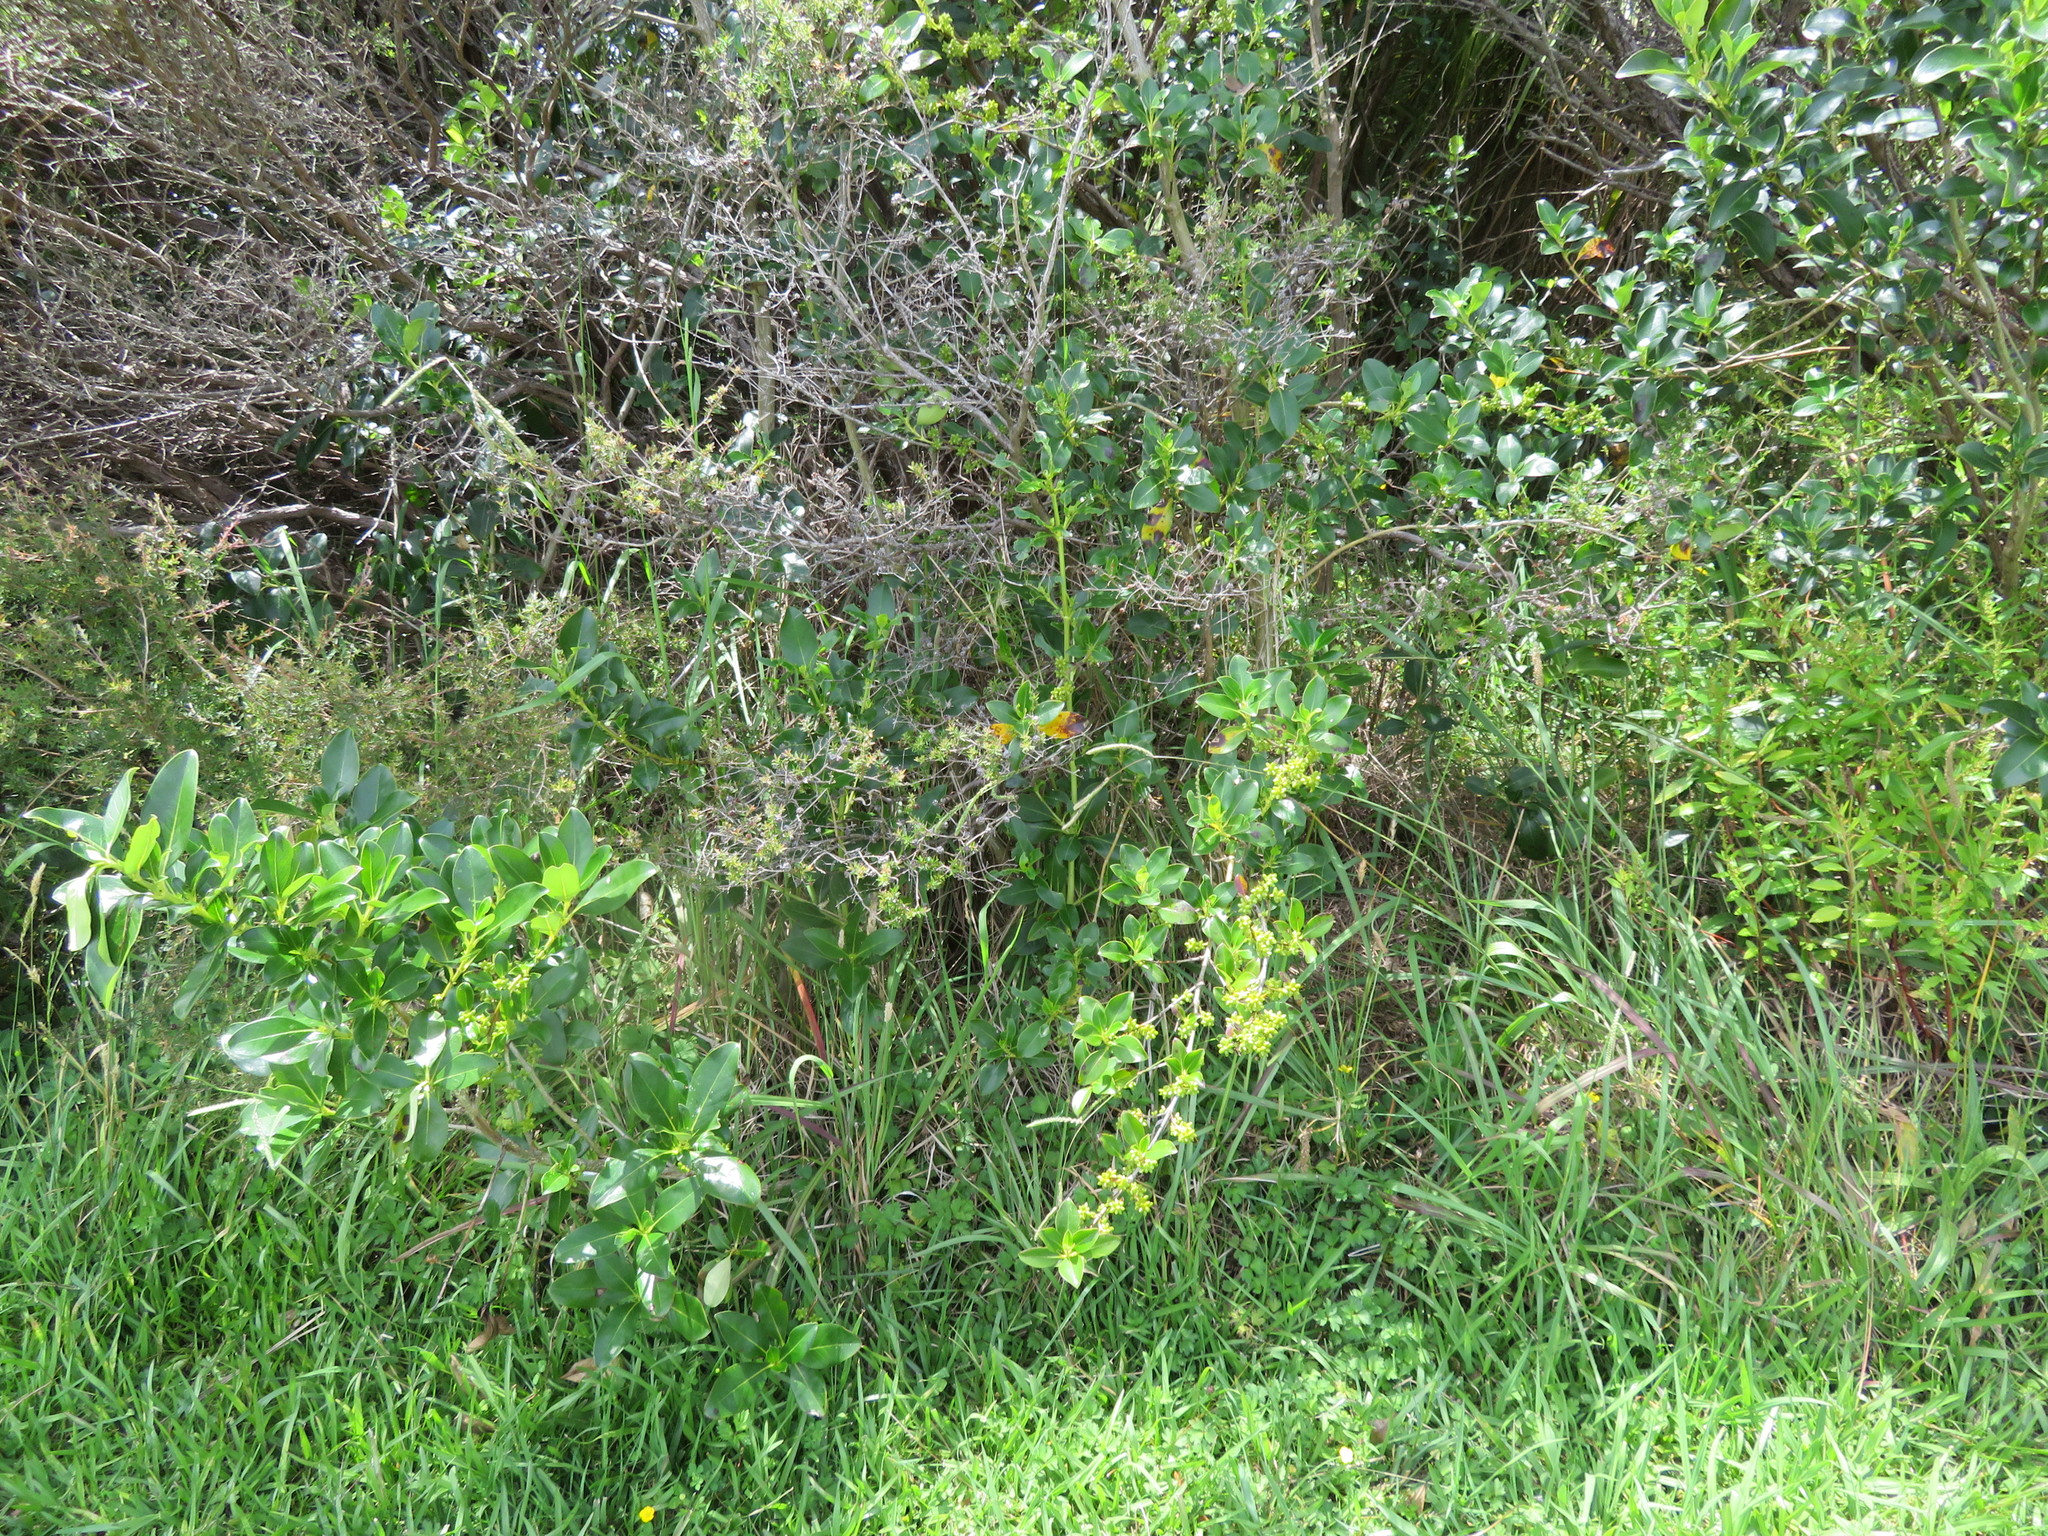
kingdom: Plantae
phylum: Tracheophyta
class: Magnoliopsida
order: Gentianales
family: Rubiaceae
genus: Coprosma
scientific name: Coprosma robusta
